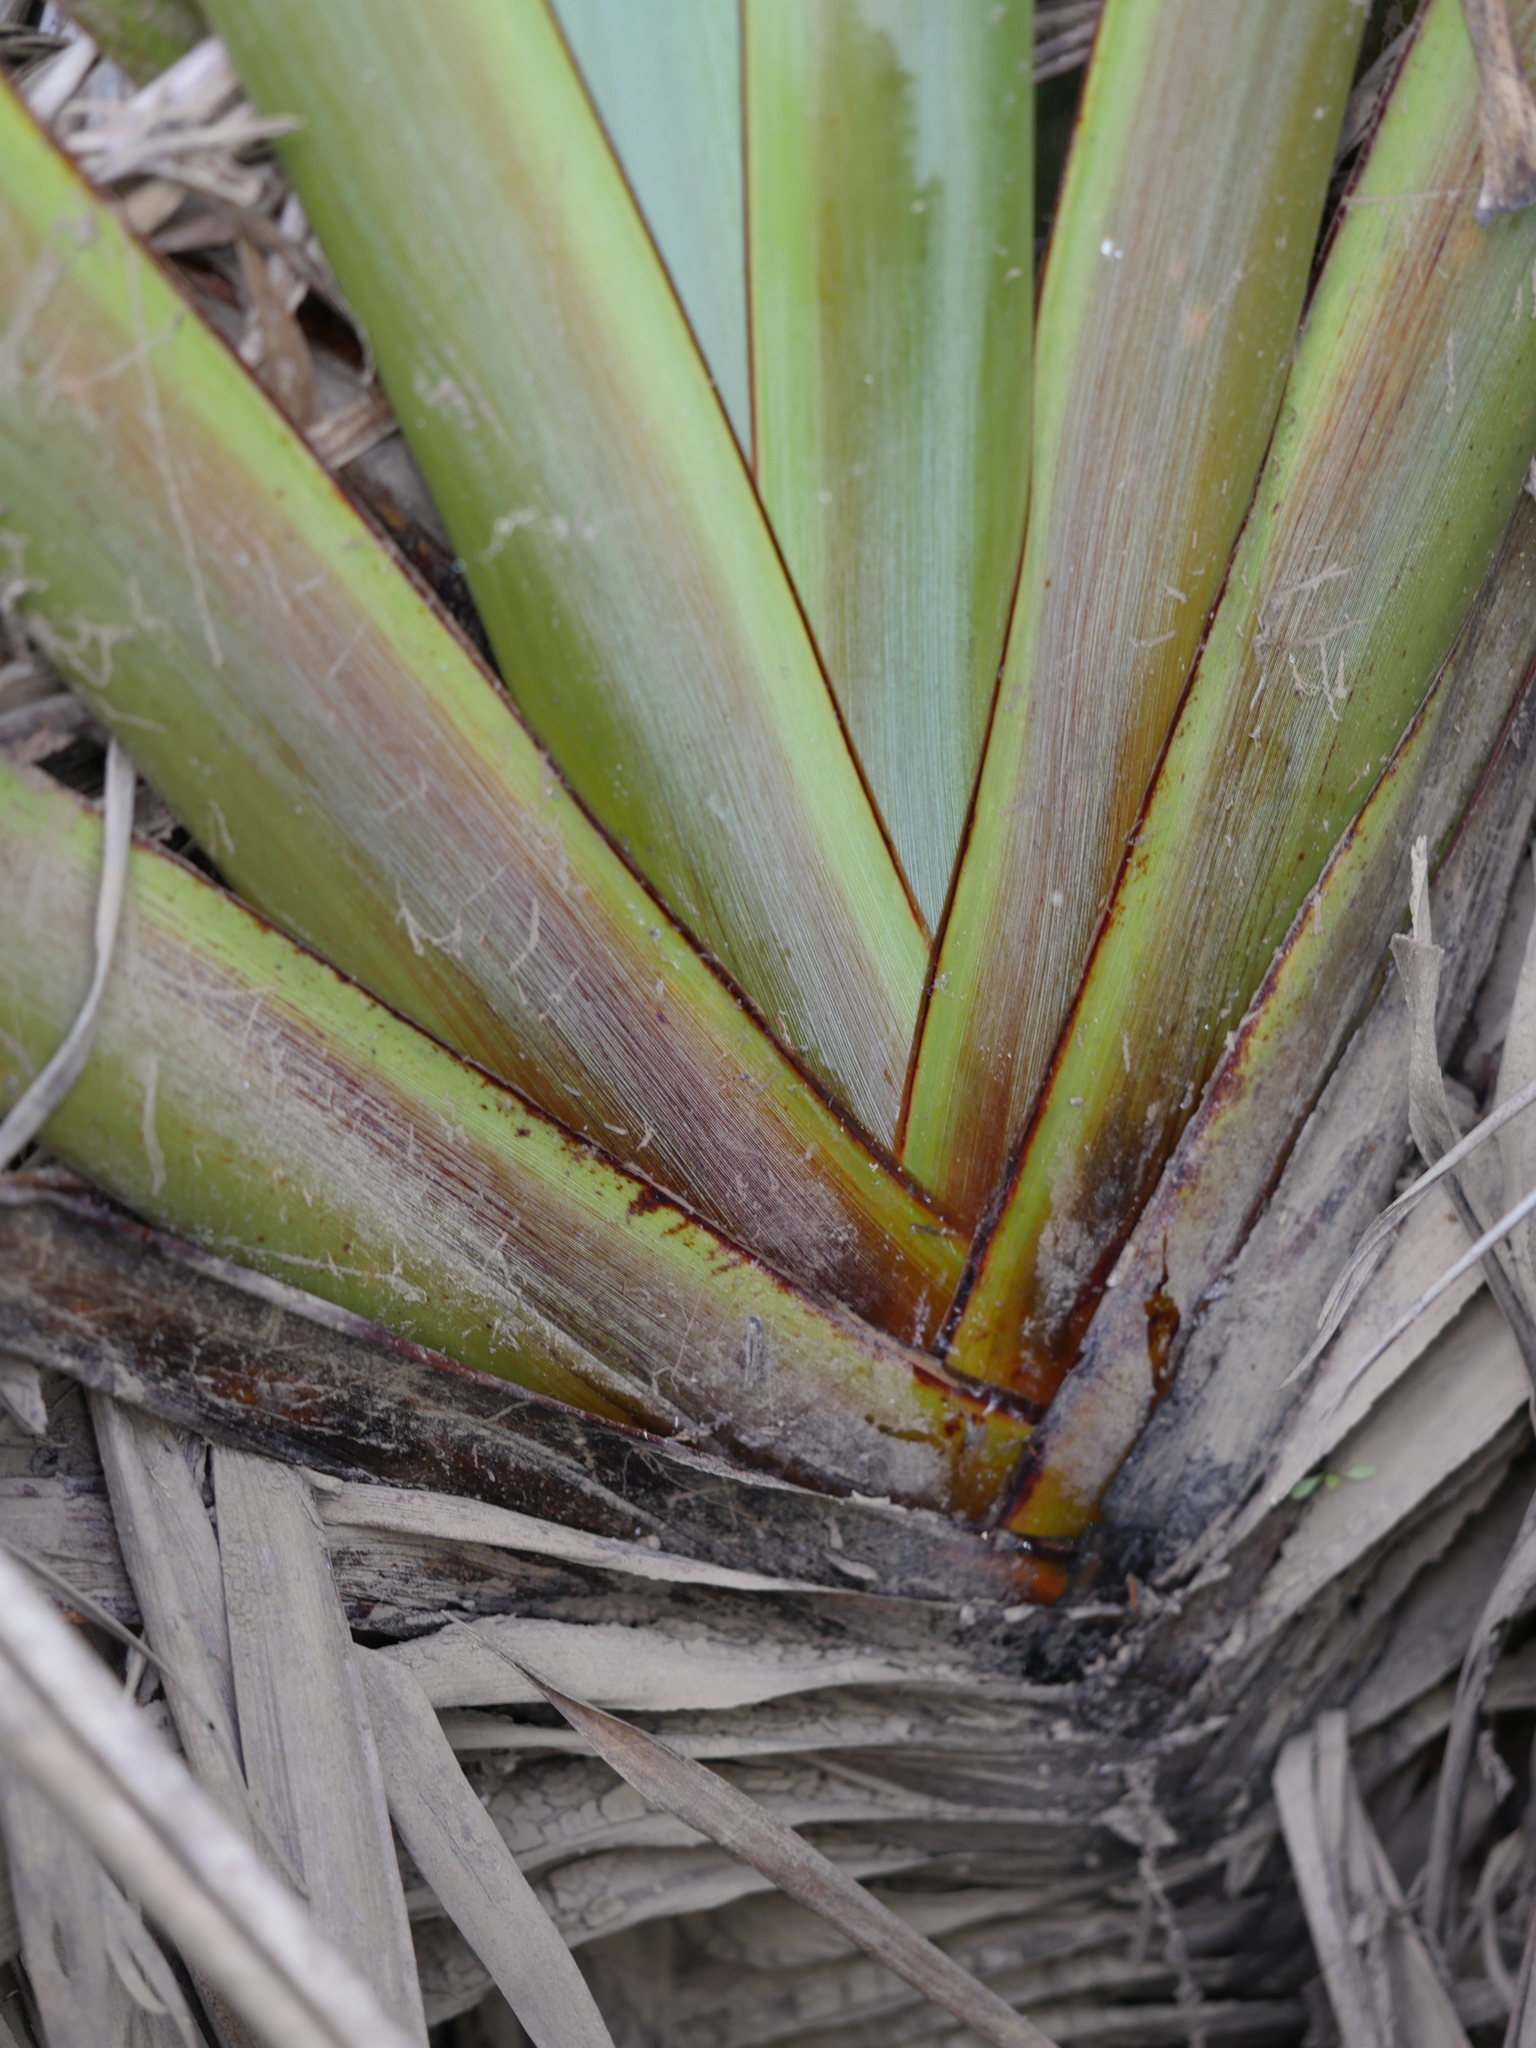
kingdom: Plantae
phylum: Tracheophyta
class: Liliopsida
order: Asparagales
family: Asphodelaceae
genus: Phormium
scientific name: Phormium tenax
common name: New zealand flax
